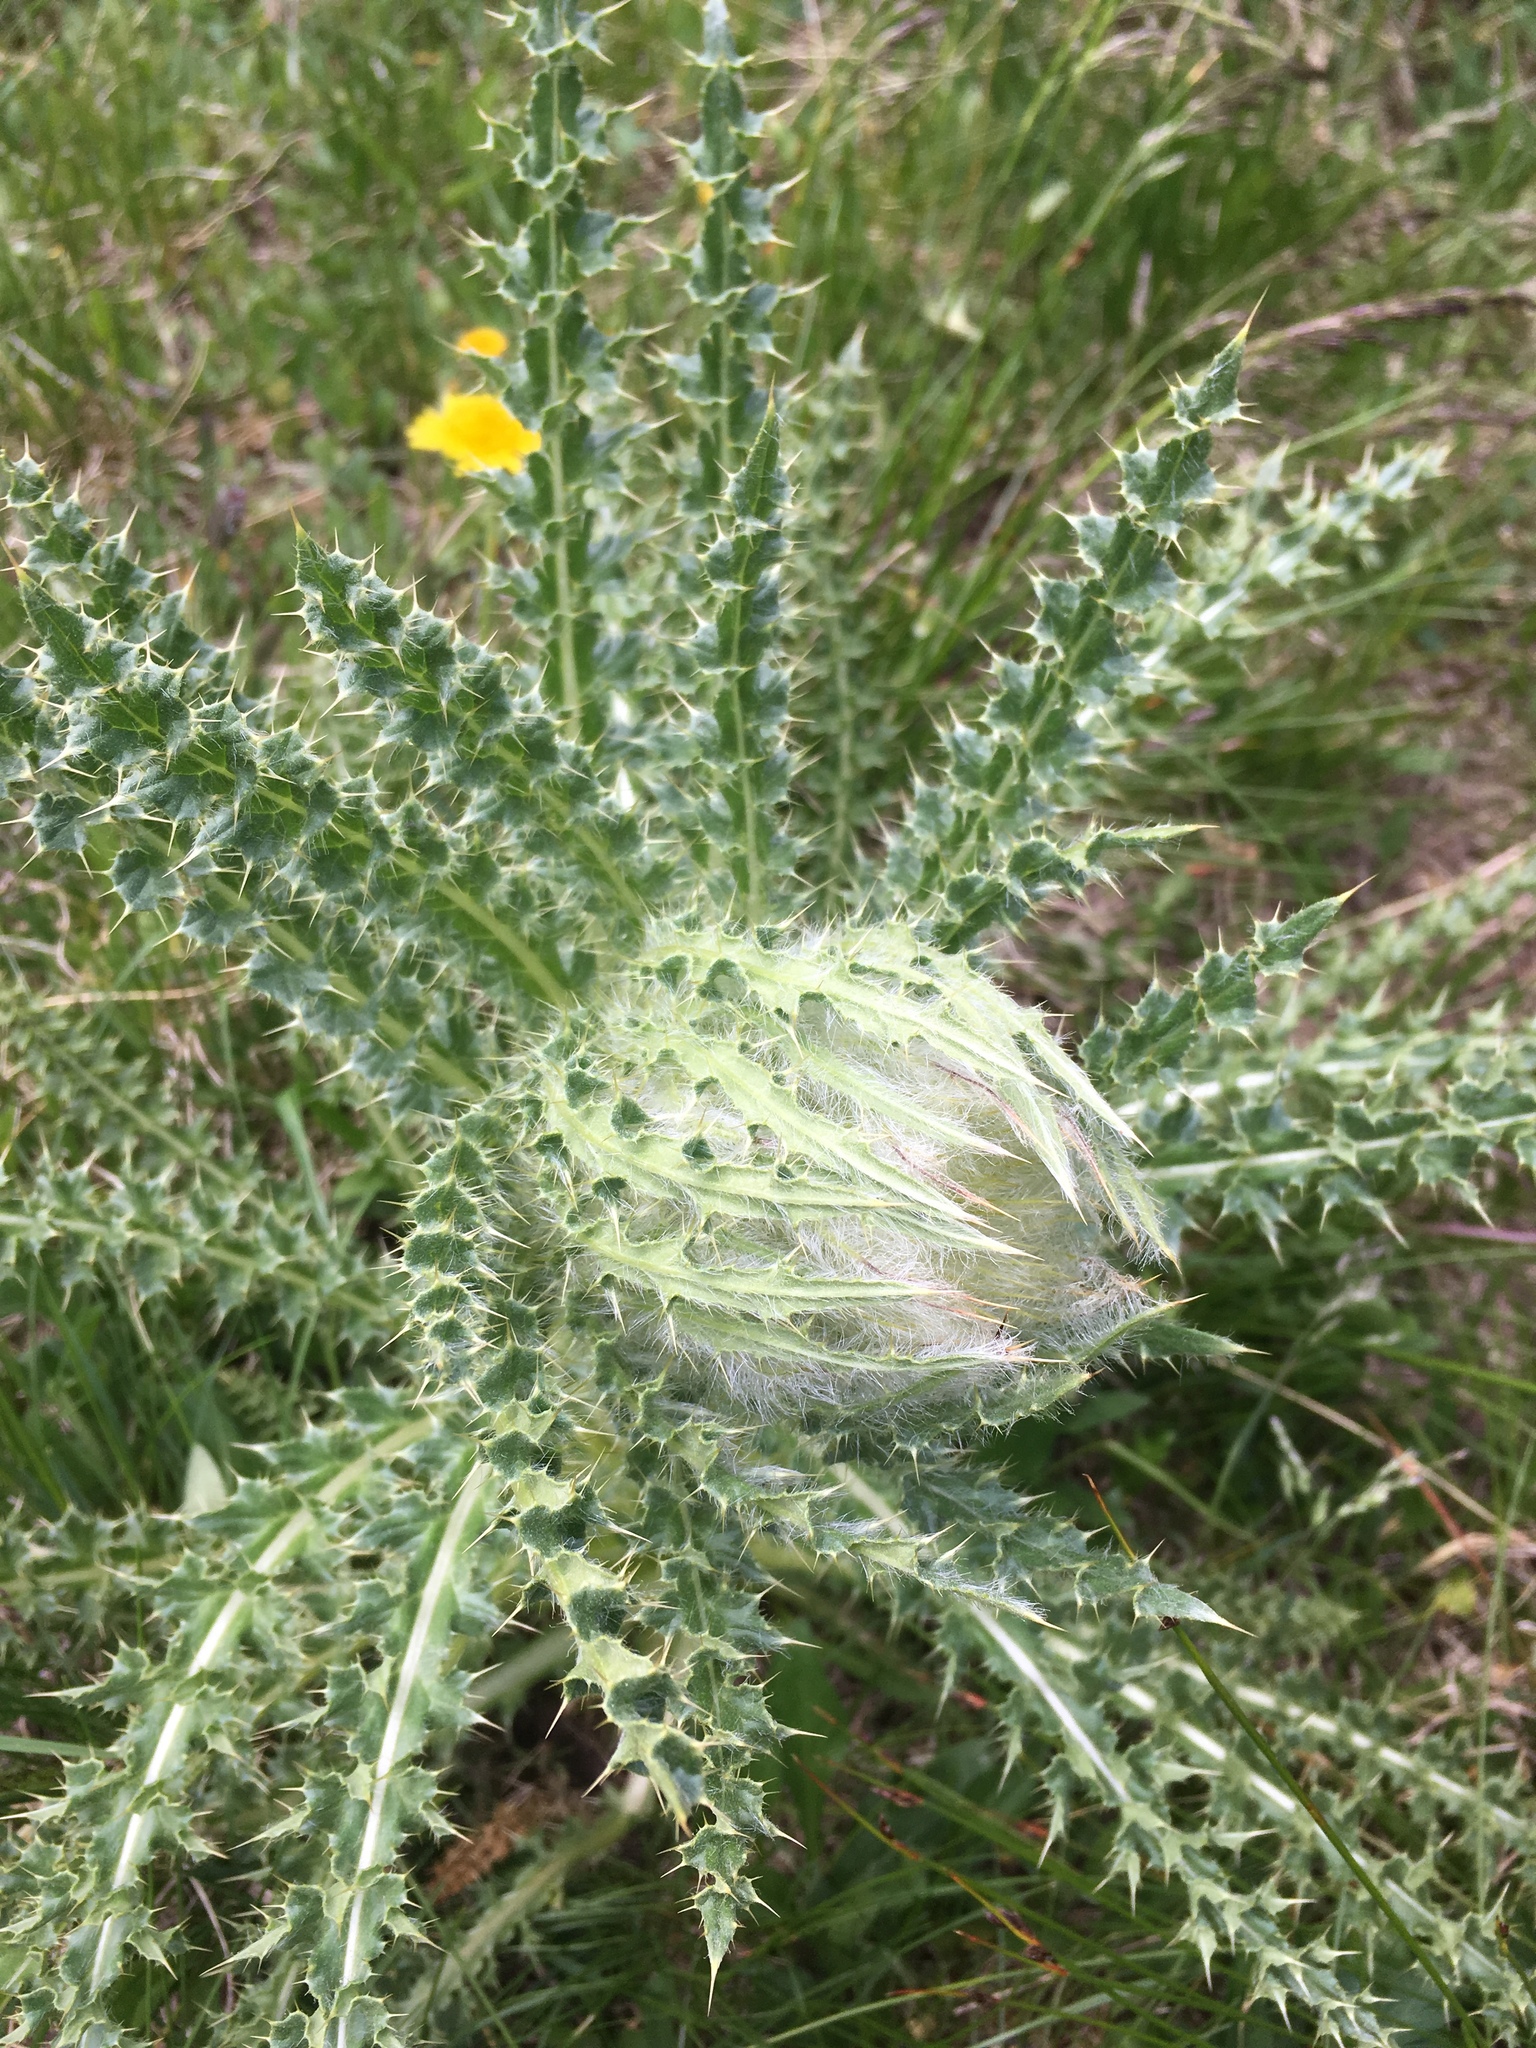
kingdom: Plantae
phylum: Tracheophyta
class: Magnoliopsida
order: Asterales
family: Asteraceae
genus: Cirsium
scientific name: Cirsium funkiae
